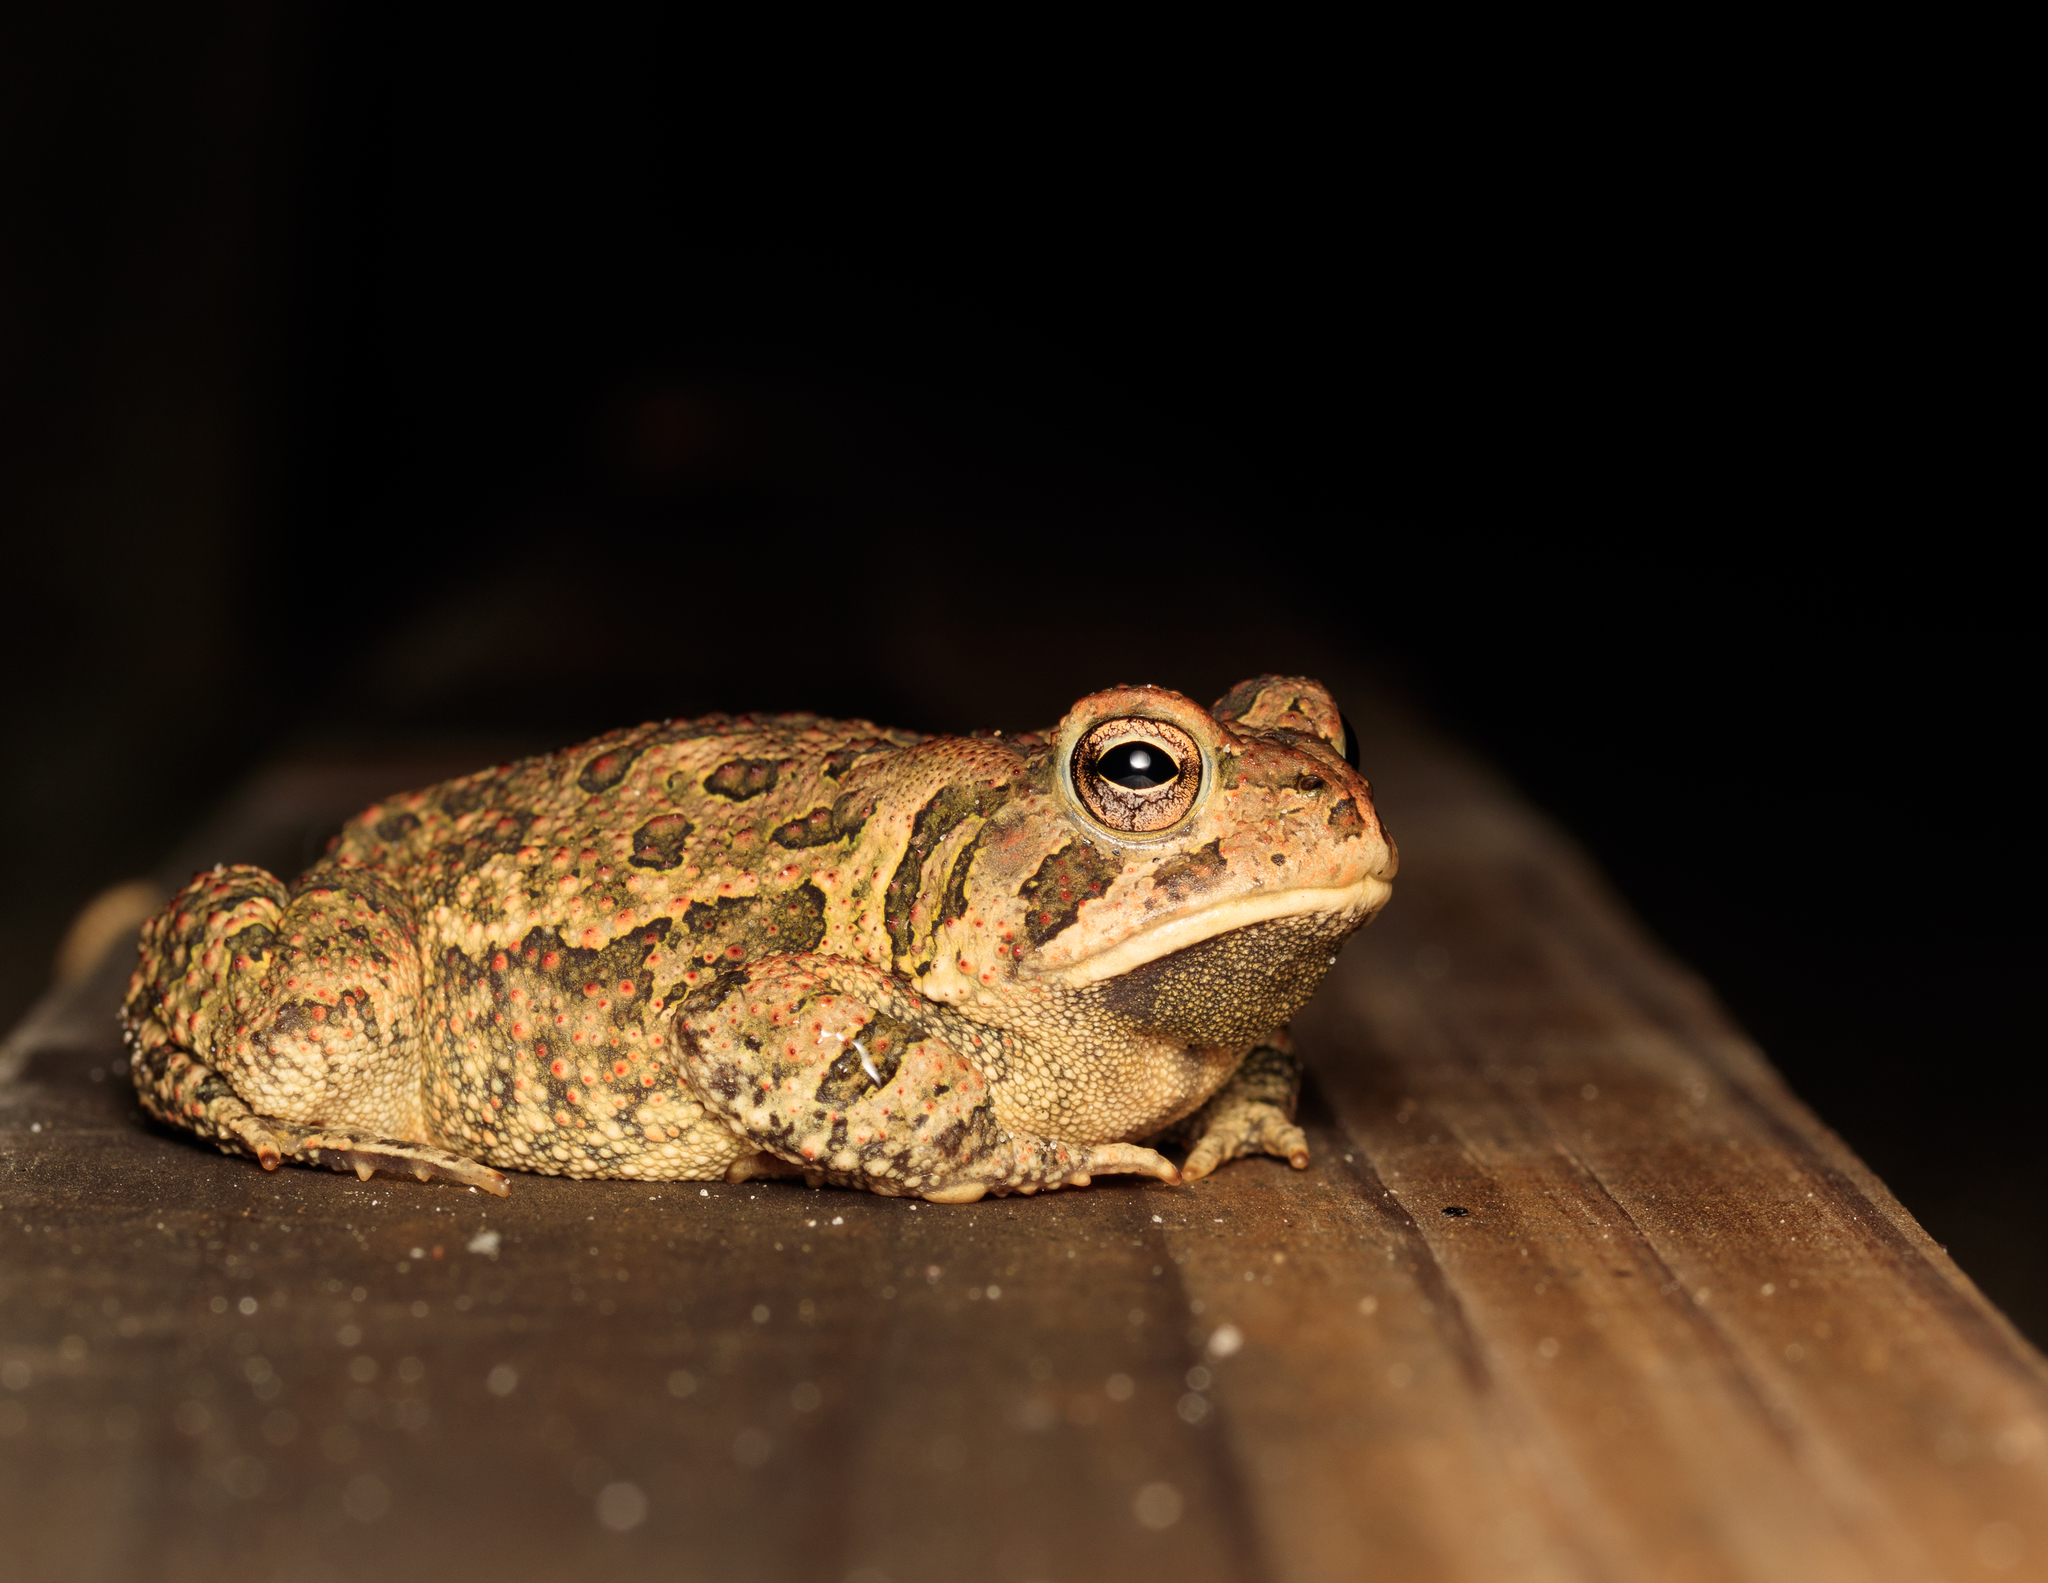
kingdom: Animalia
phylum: Chordata
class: Amphibia
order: Anura
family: Bufonidae
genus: Anaxyrus
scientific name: Anaxyrus fowleri
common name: Fowler's toad
